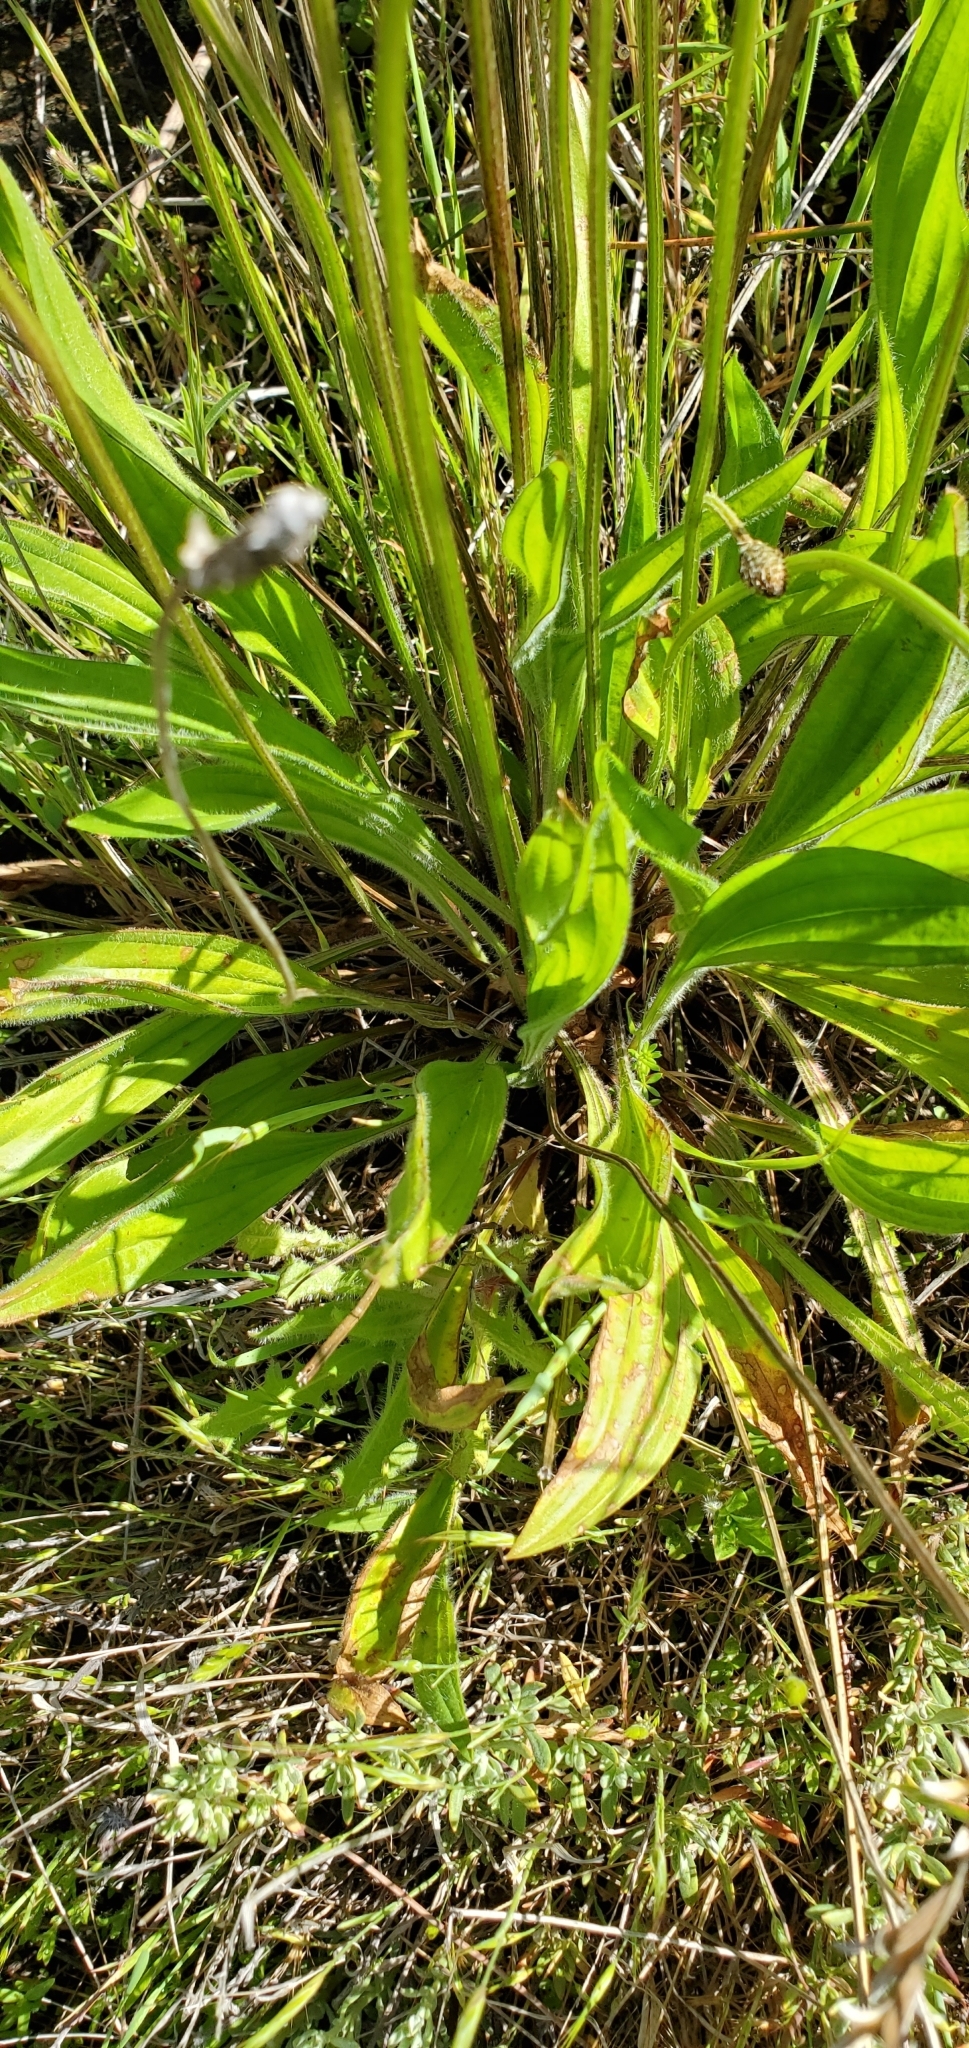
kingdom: Plantae
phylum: Tracheophyta
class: Magnoliopsida
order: Lamiales
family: Plantaginaceae
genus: Plantago
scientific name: Plantago lanceolata
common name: Ribwort plantain
